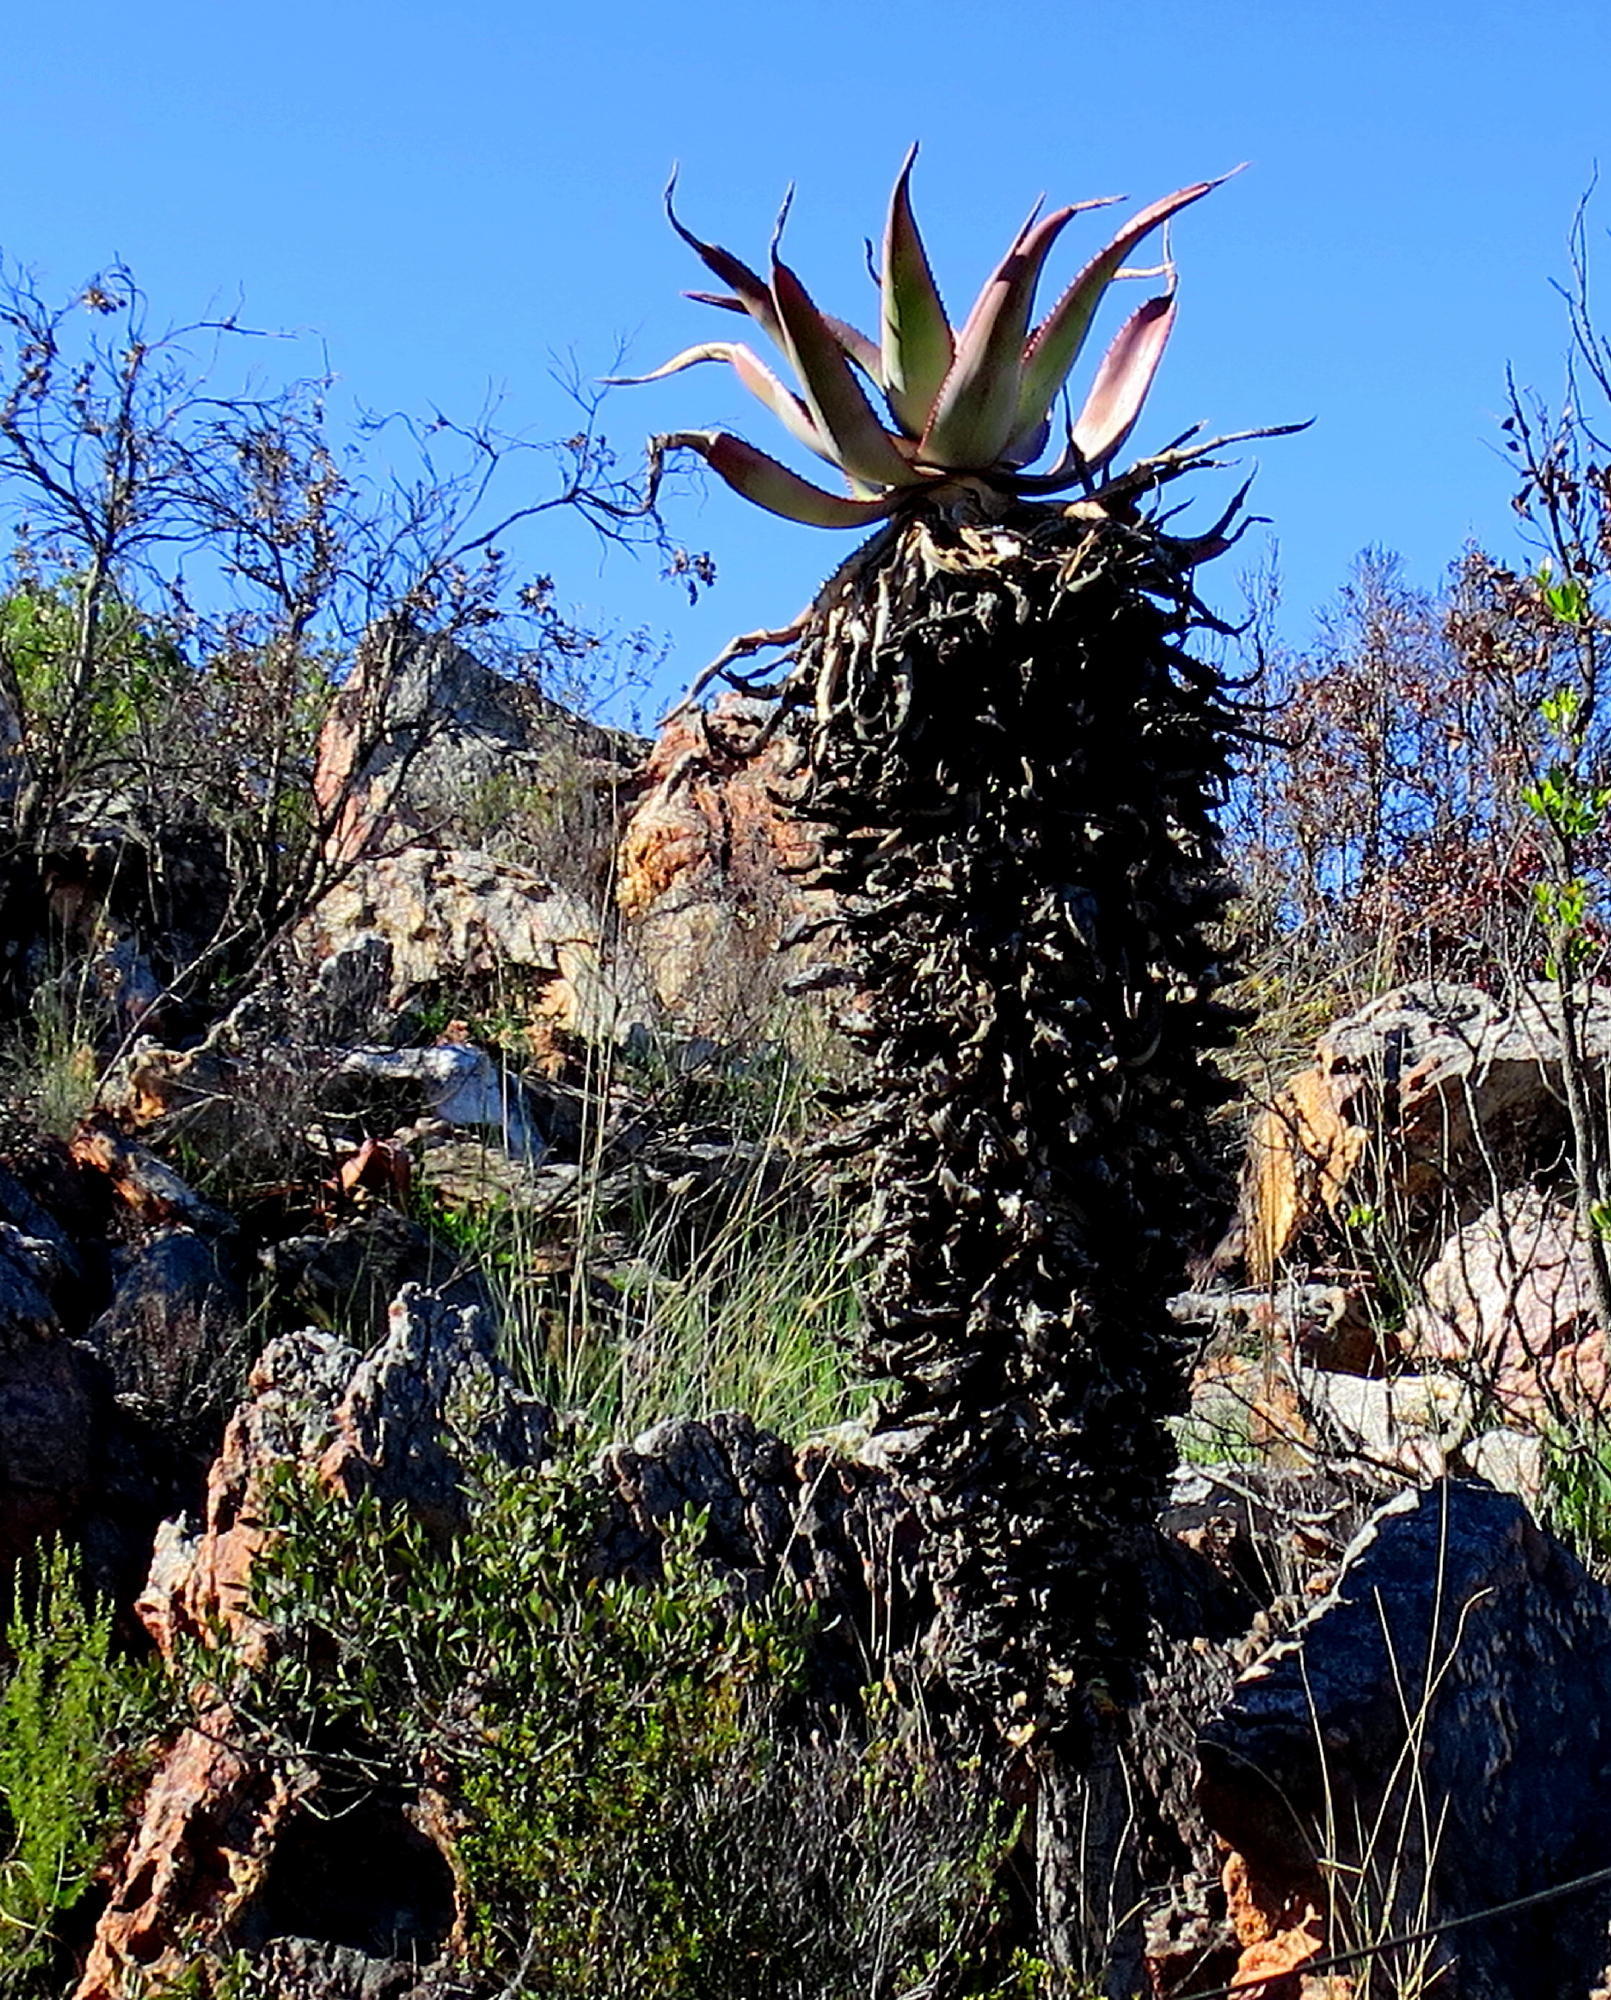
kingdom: Plantae
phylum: Tracheophyta
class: Liliopsida
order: Asparagales
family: Asphodelaceae
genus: Aloe
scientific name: Aloe ferox
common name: Bitter aloe
